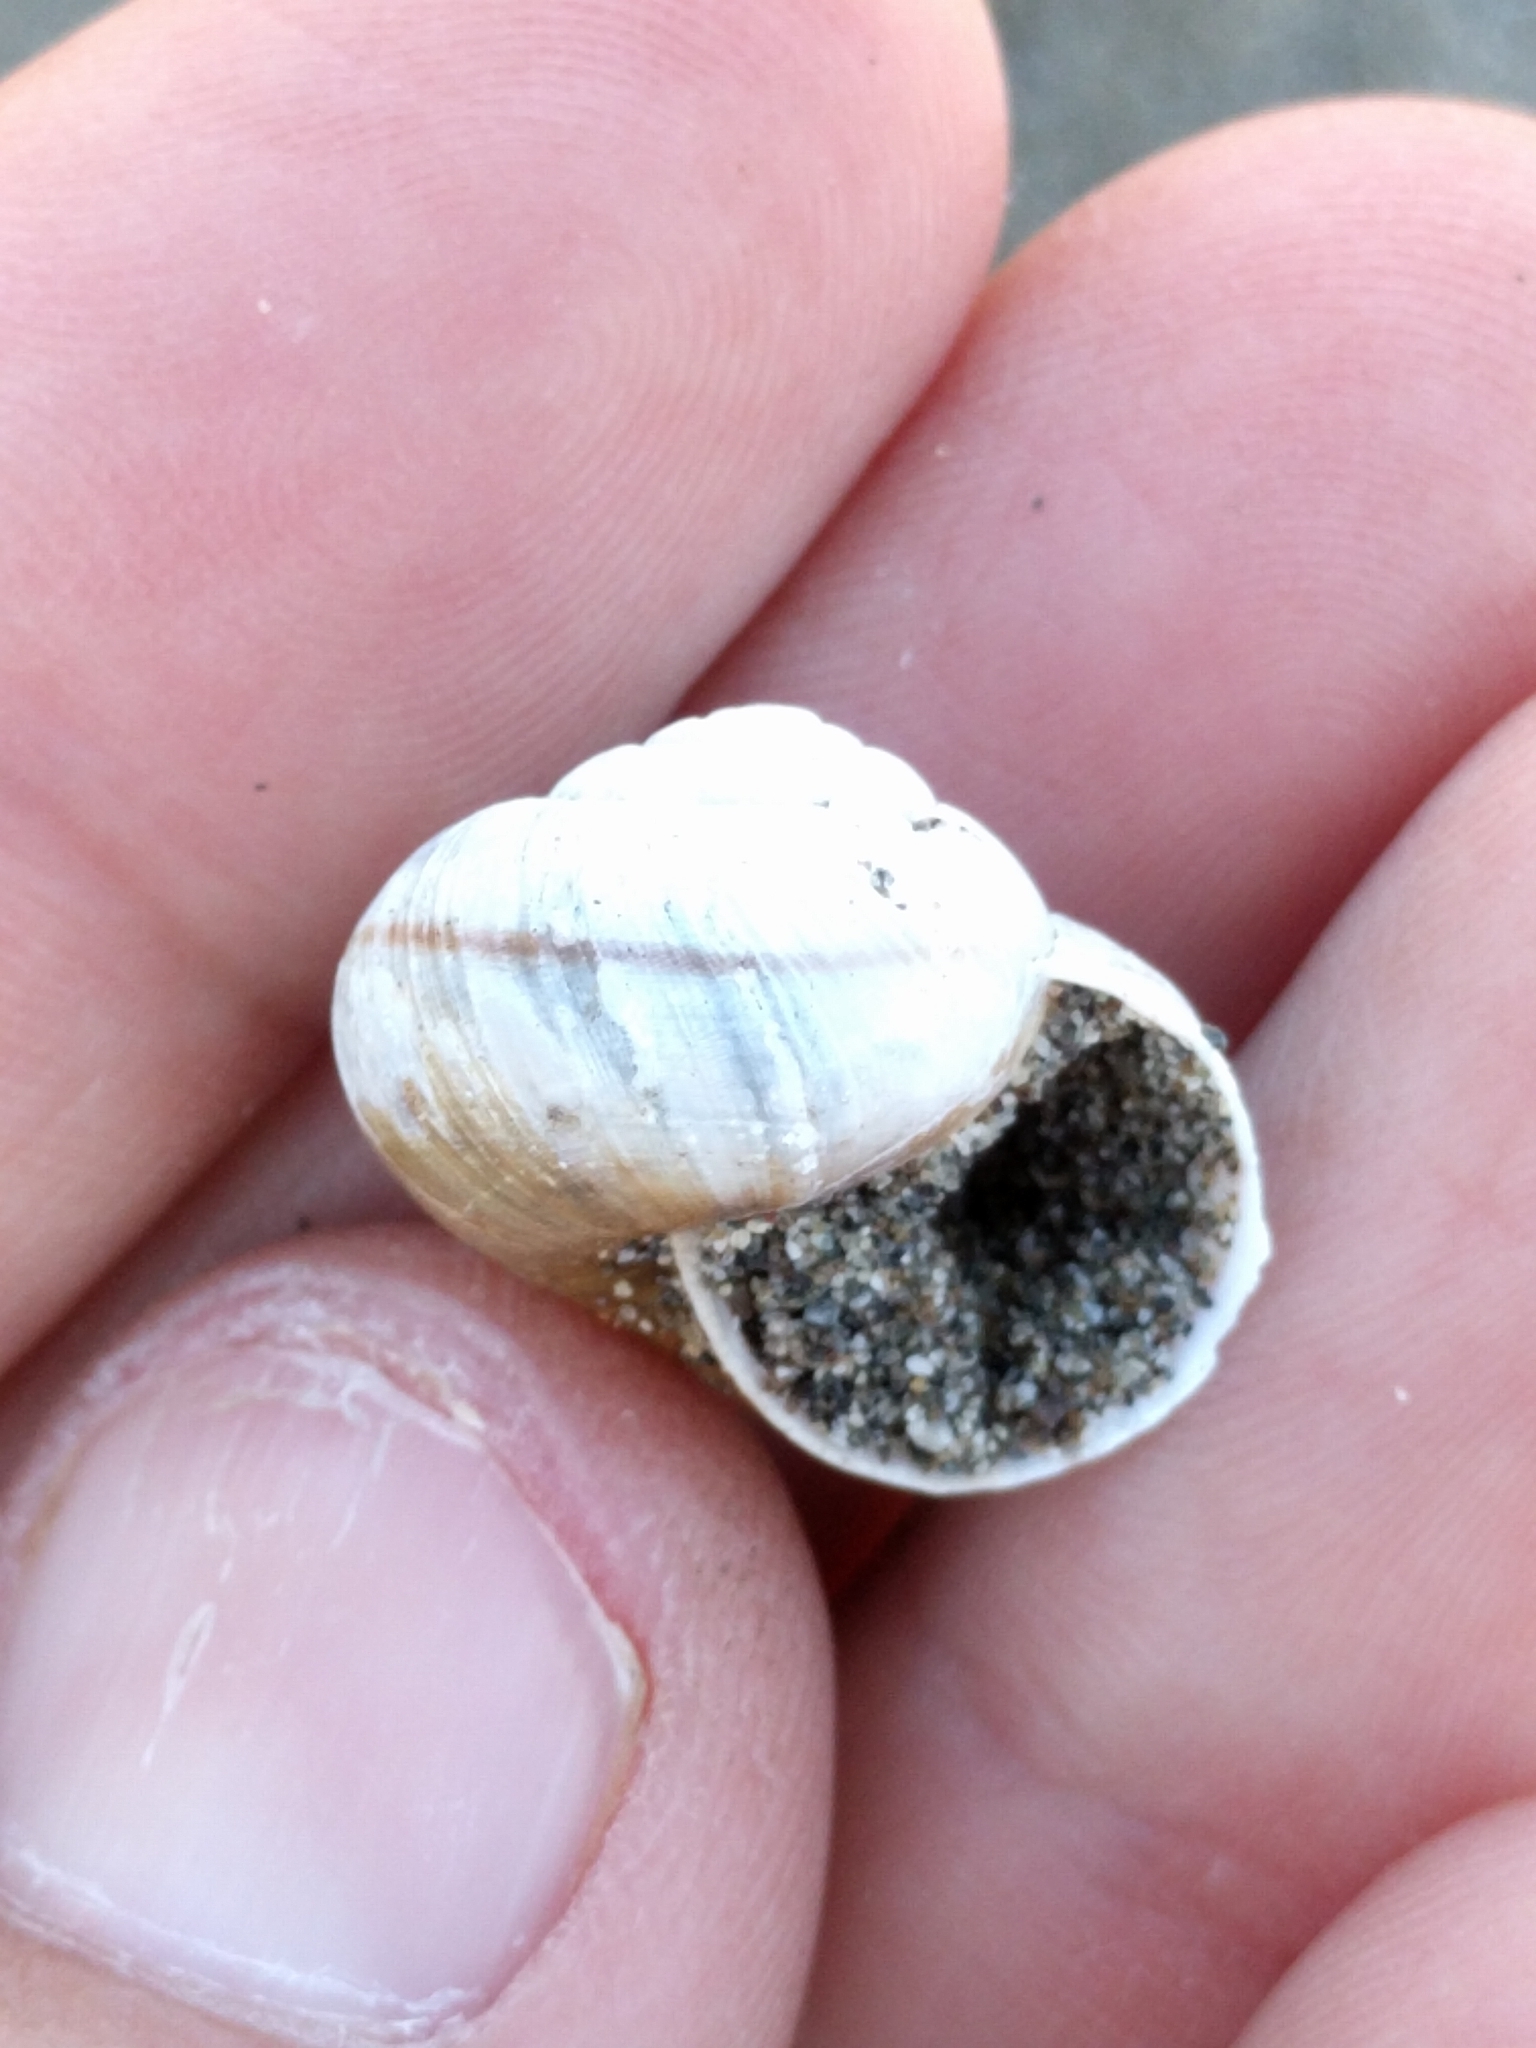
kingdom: Animalia
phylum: Mollusca
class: Gastropoda
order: Stylommatophora
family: Xanthonychidae
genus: Helminthoglypta
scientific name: Helminthoglypta mailliardi
